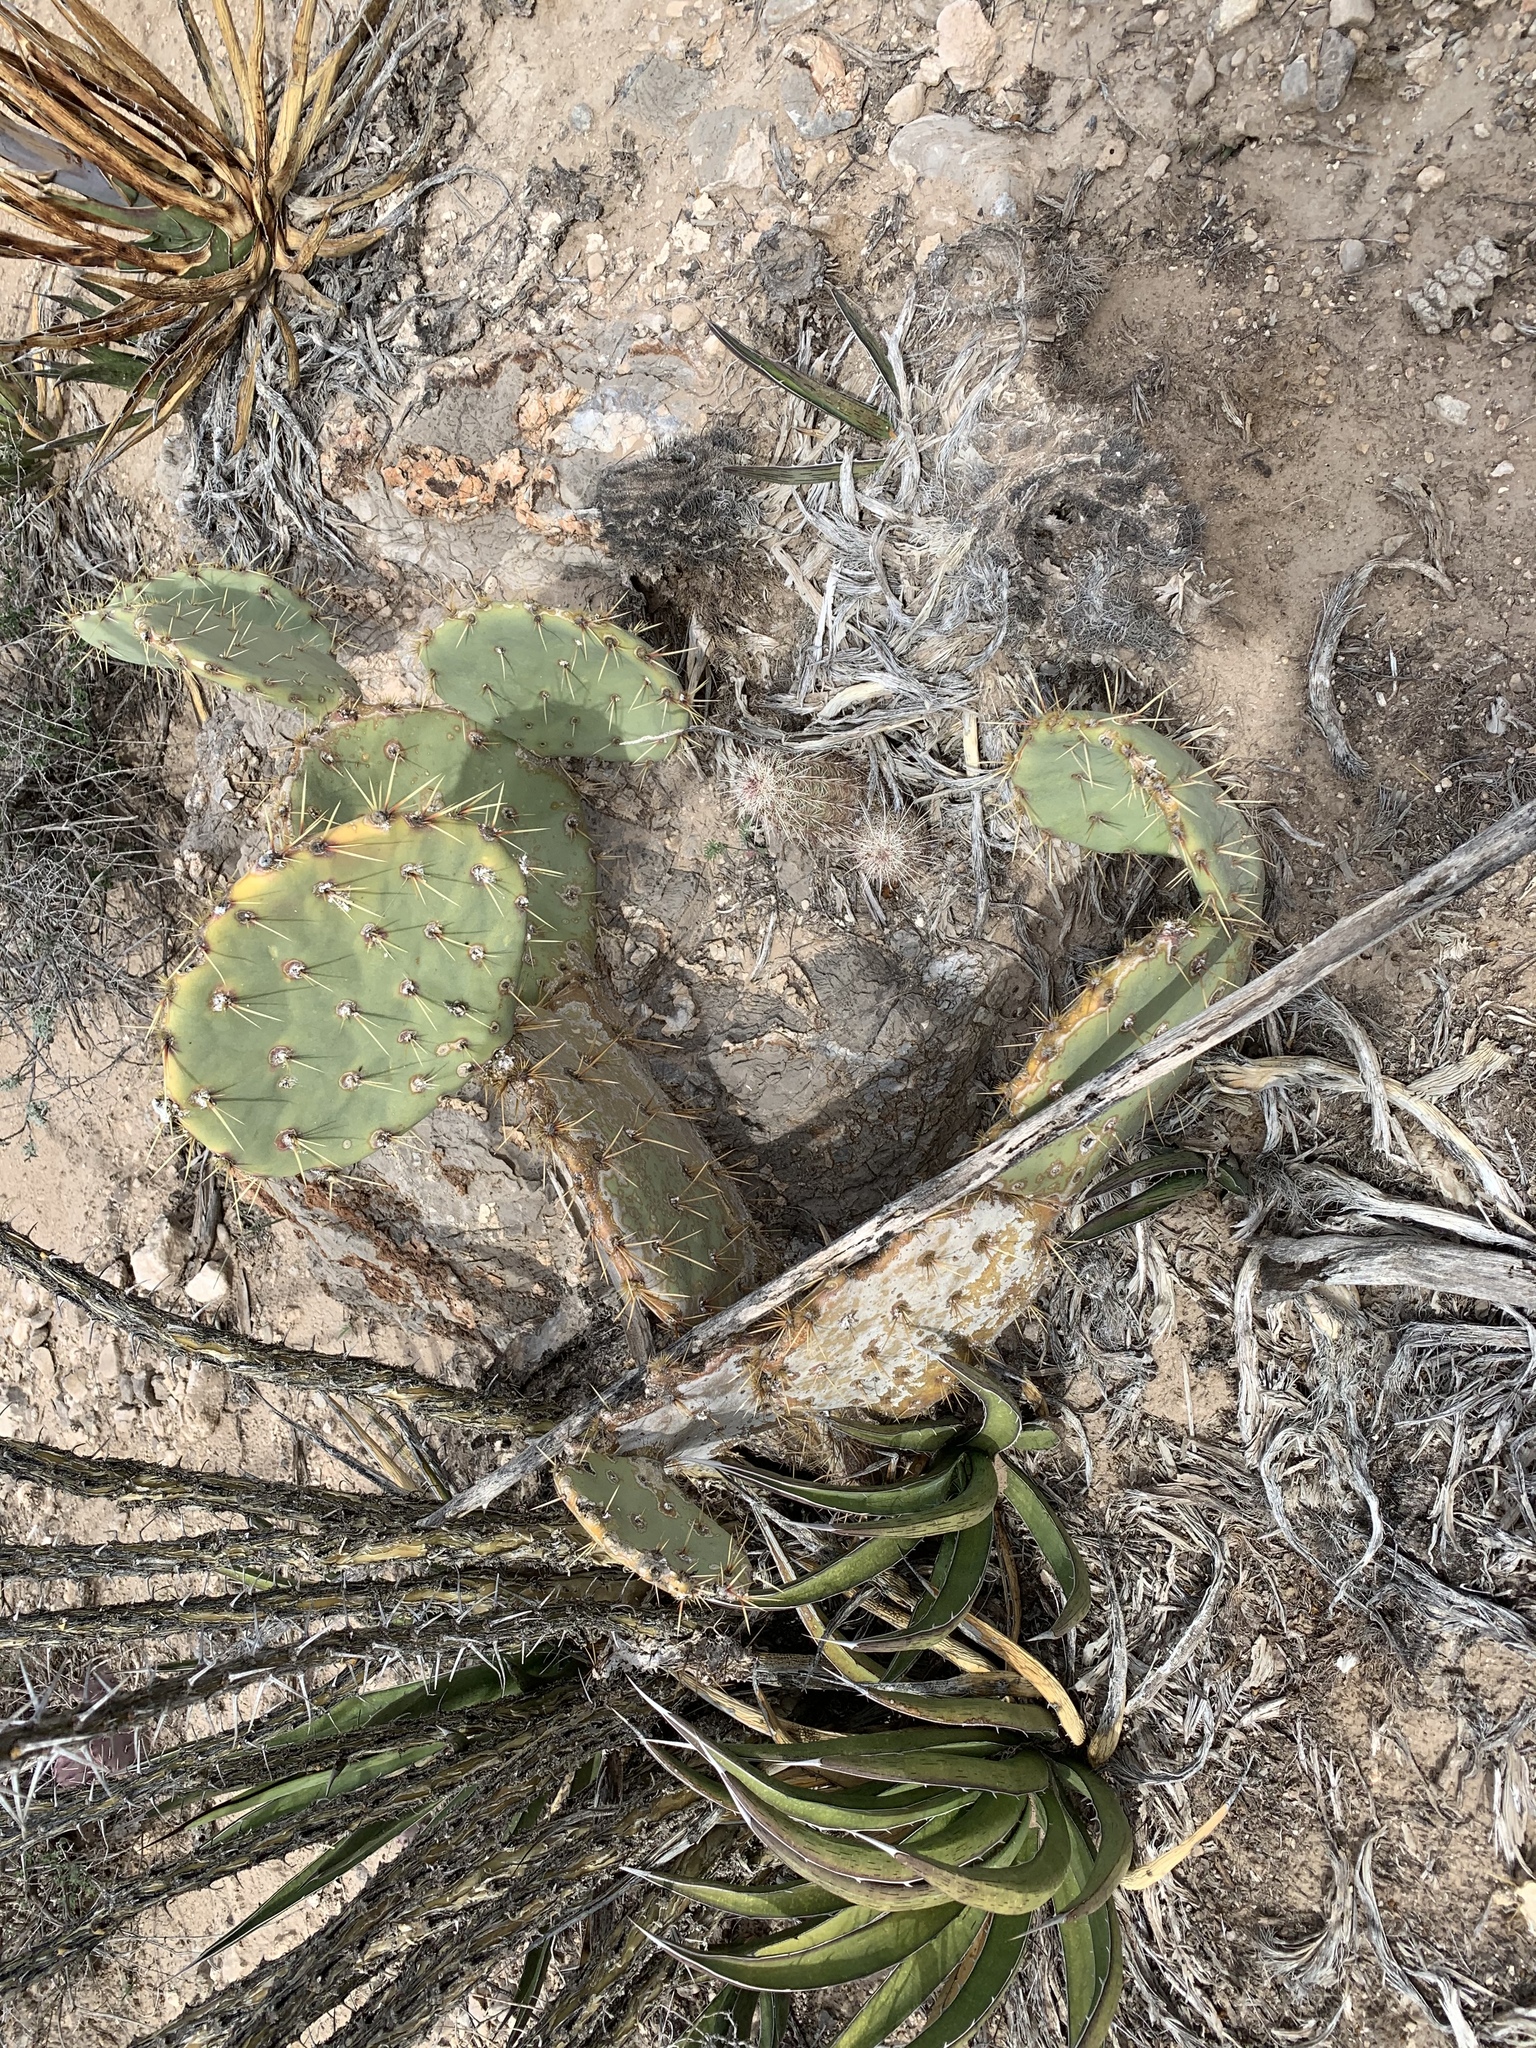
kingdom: Plantae
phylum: Tracheophyta
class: Magnoliopsida
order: Caryophyllales
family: Cactaceae
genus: Opuntia
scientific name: Opuntia orbiculata
